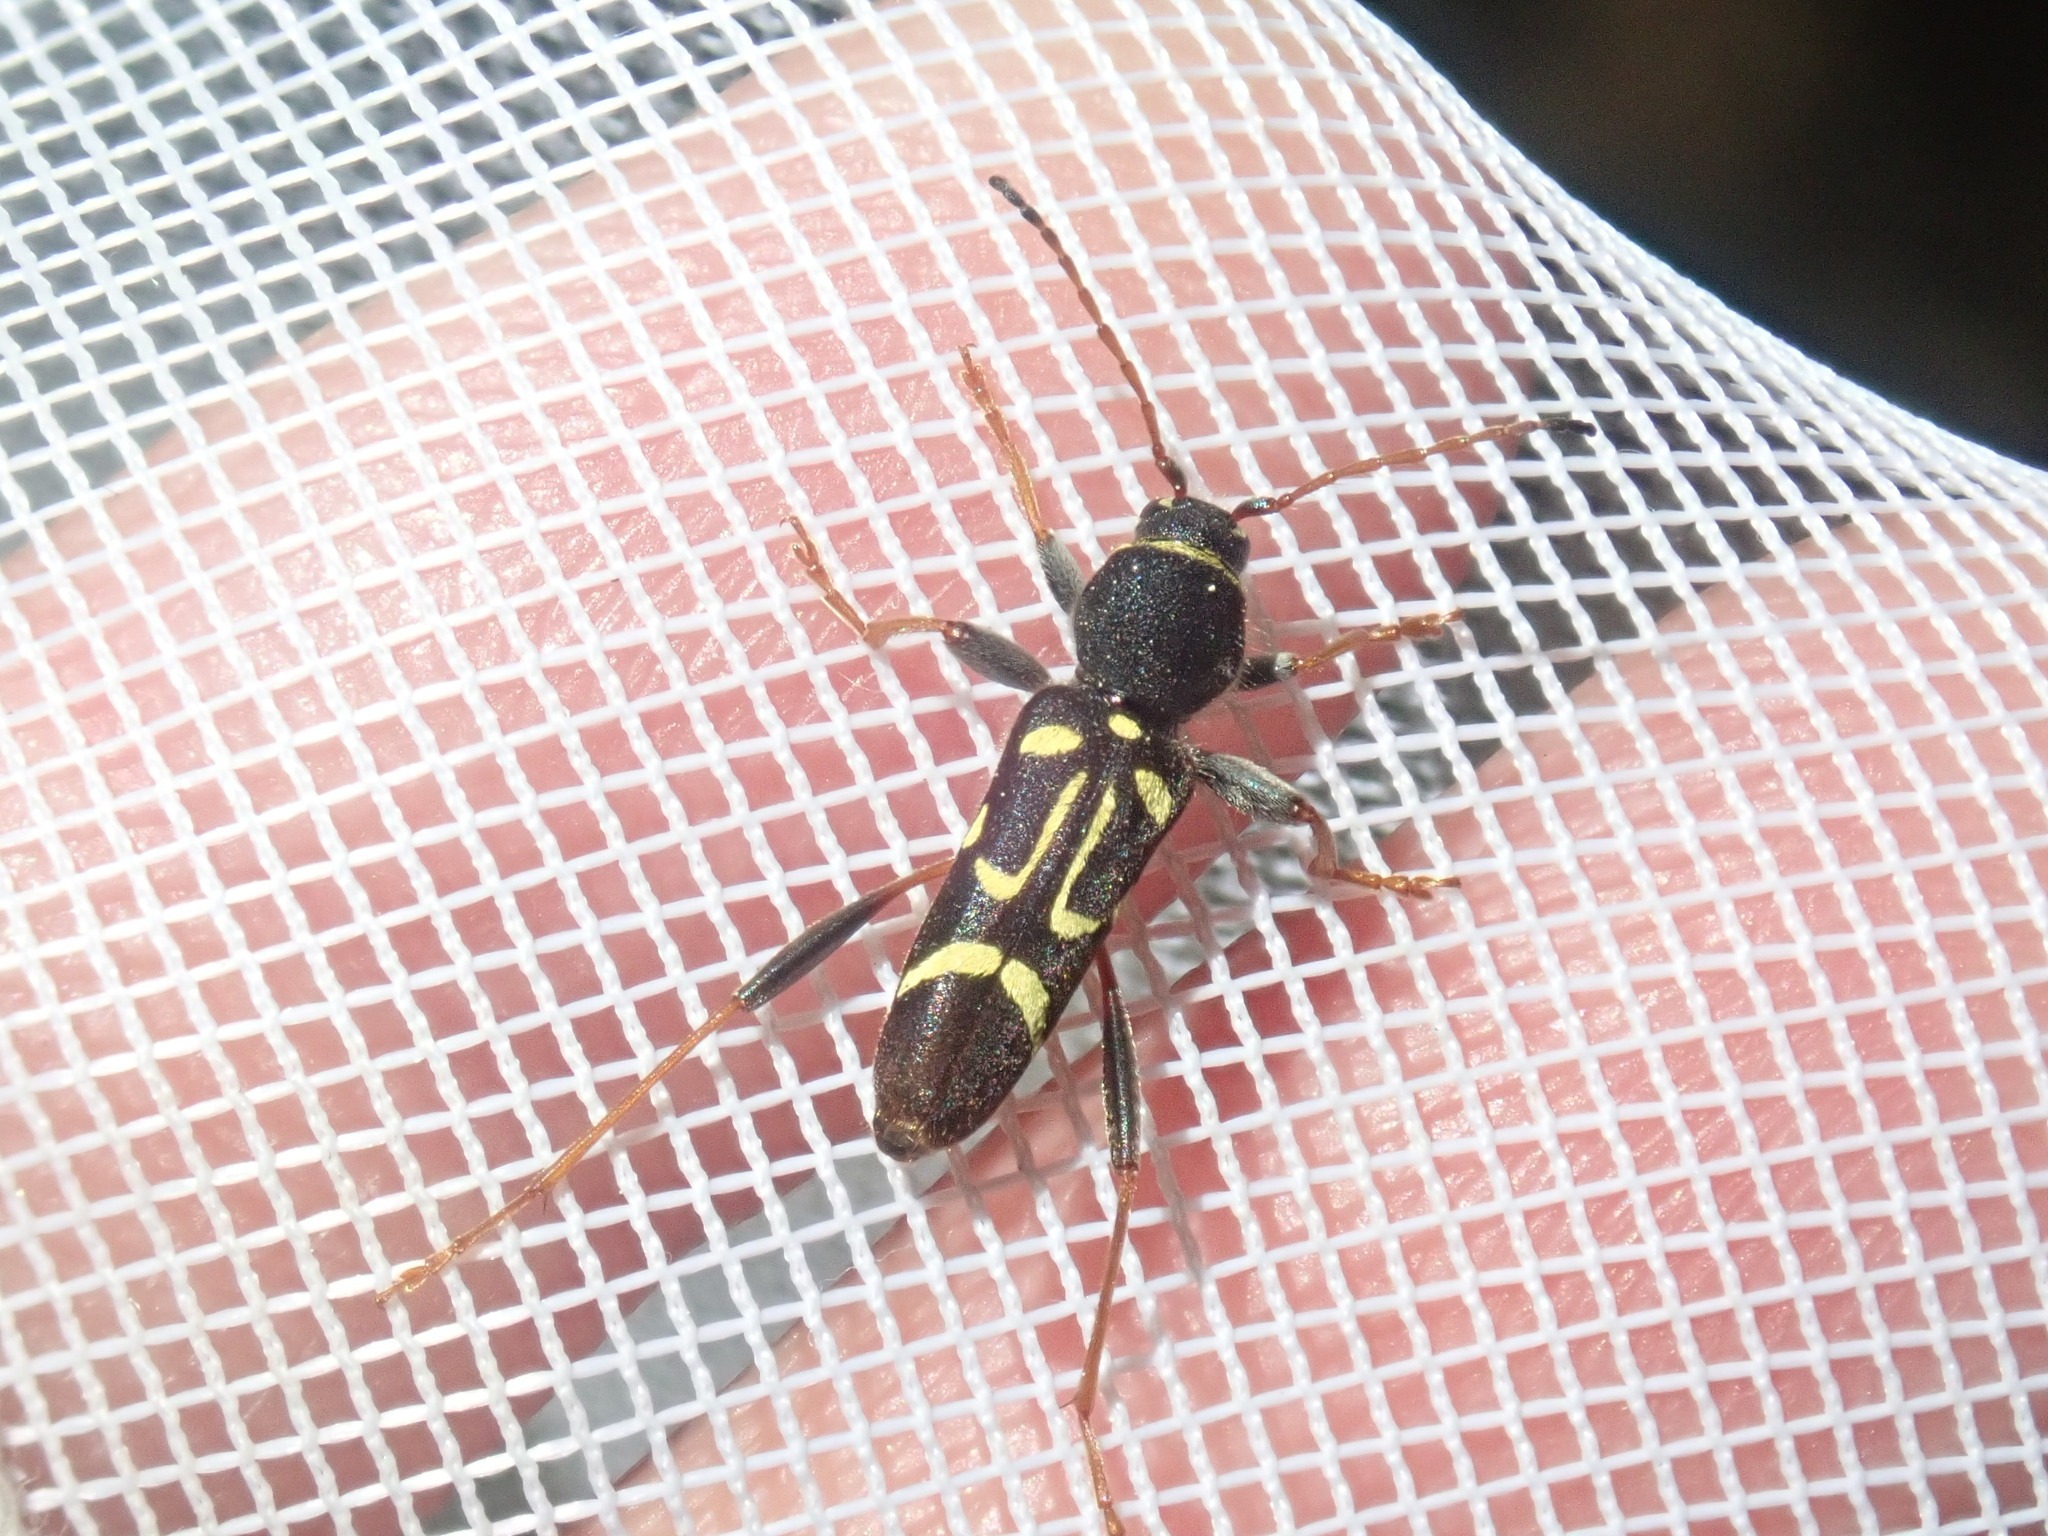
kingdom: Animalia
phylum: Arthropoda
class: Insecta
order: Coleoptera
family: Cerambycidae
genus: Clytus
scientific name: Clytus ruricola
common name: Round-necked longhorn beetle
